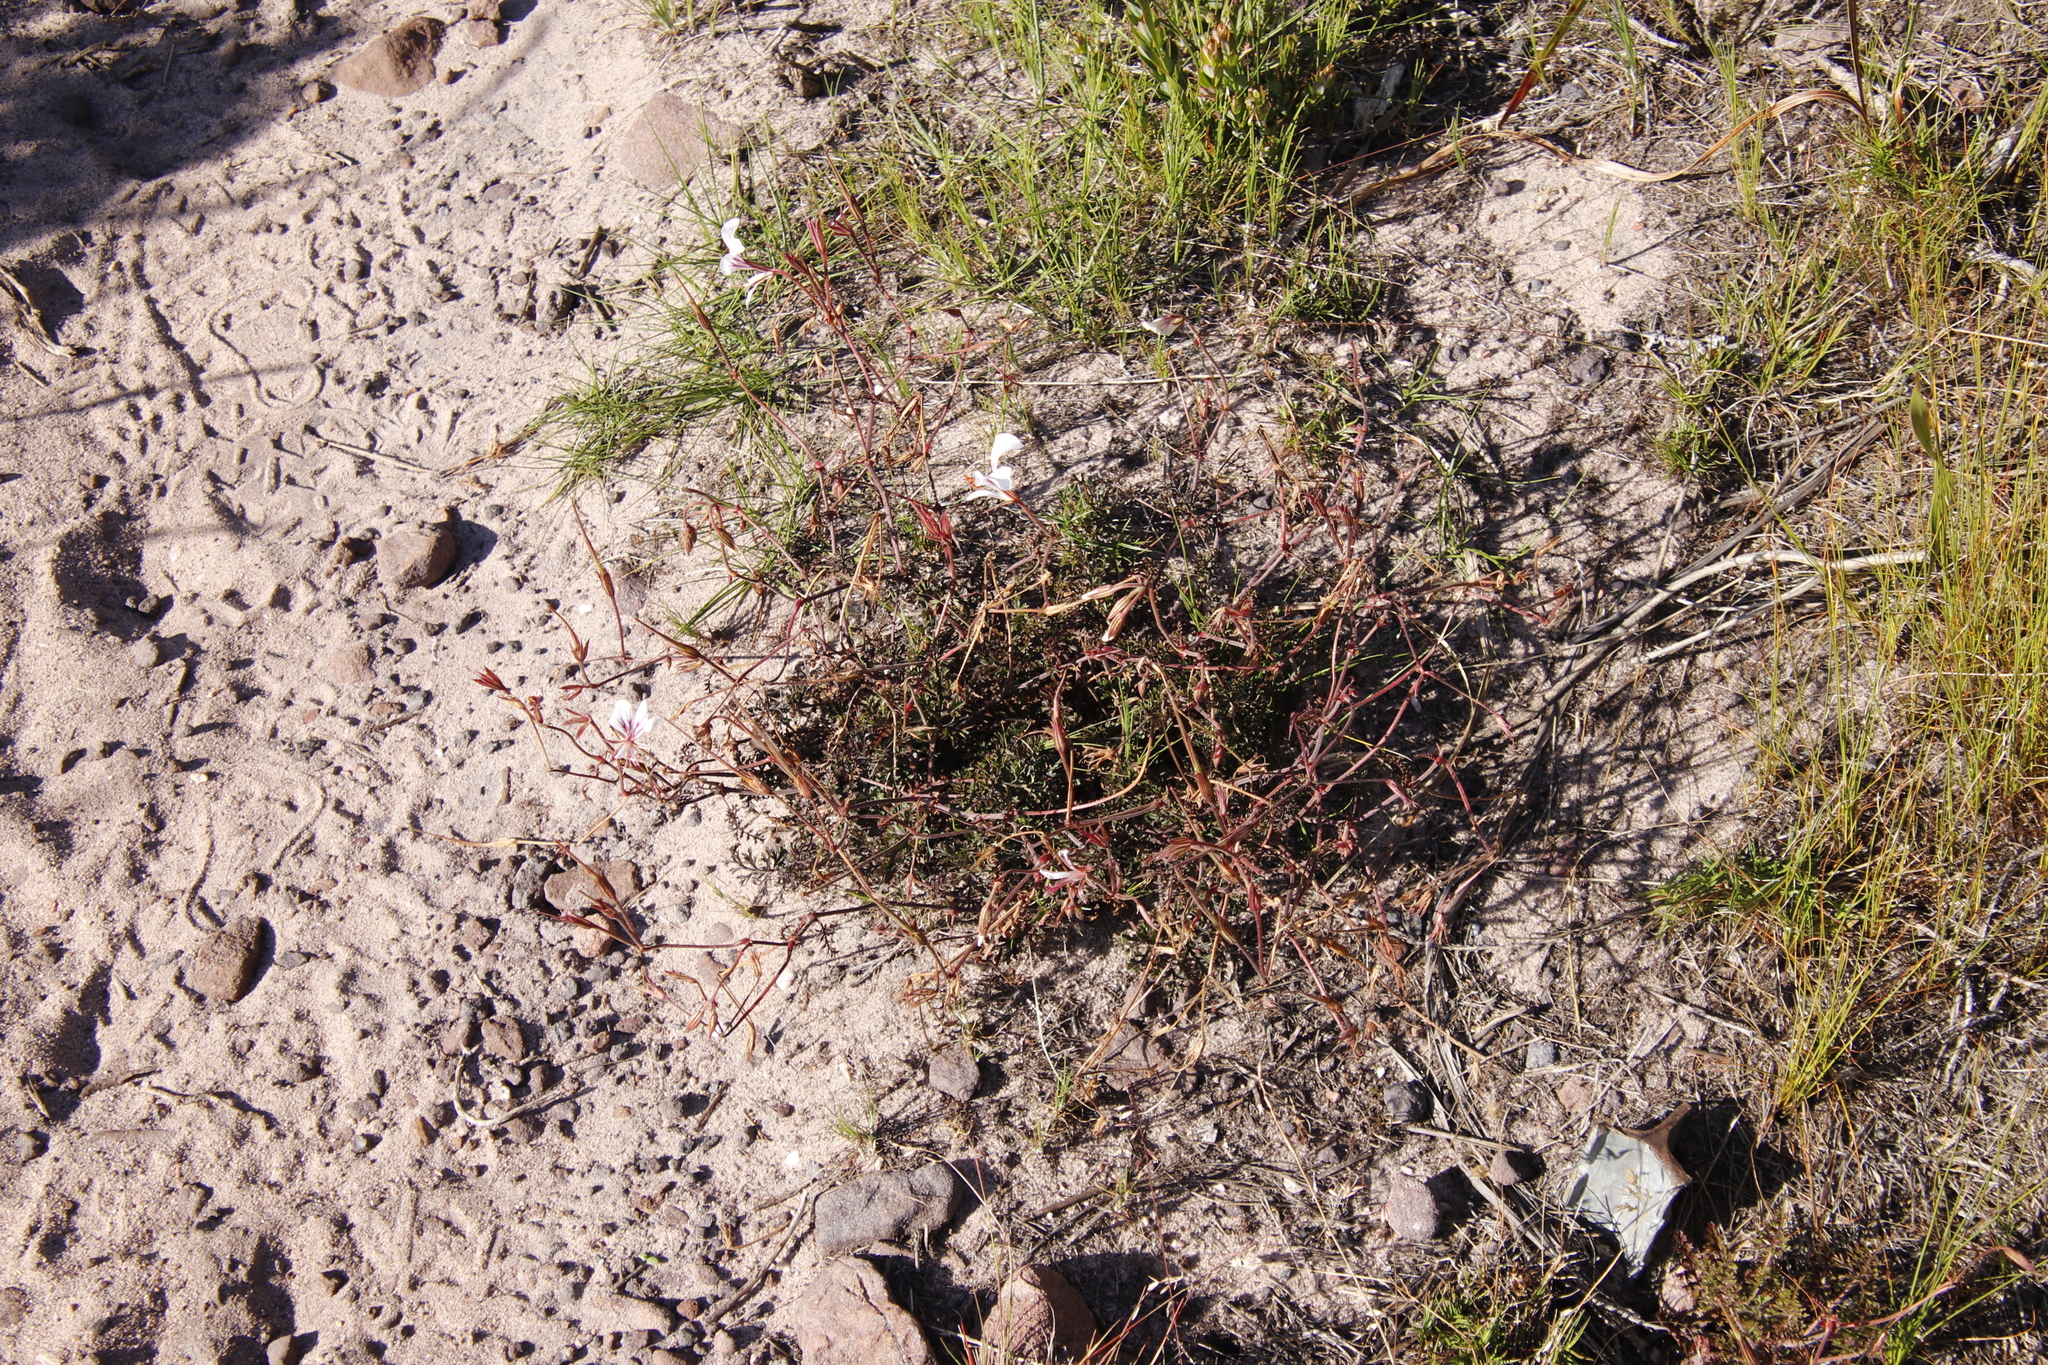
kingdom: Plantae
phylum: Tracheophyta
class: Magnoliopsida
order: Geraniales
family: Geraniaceae
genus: Pelargonium
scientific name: Pelargonium longicaule
